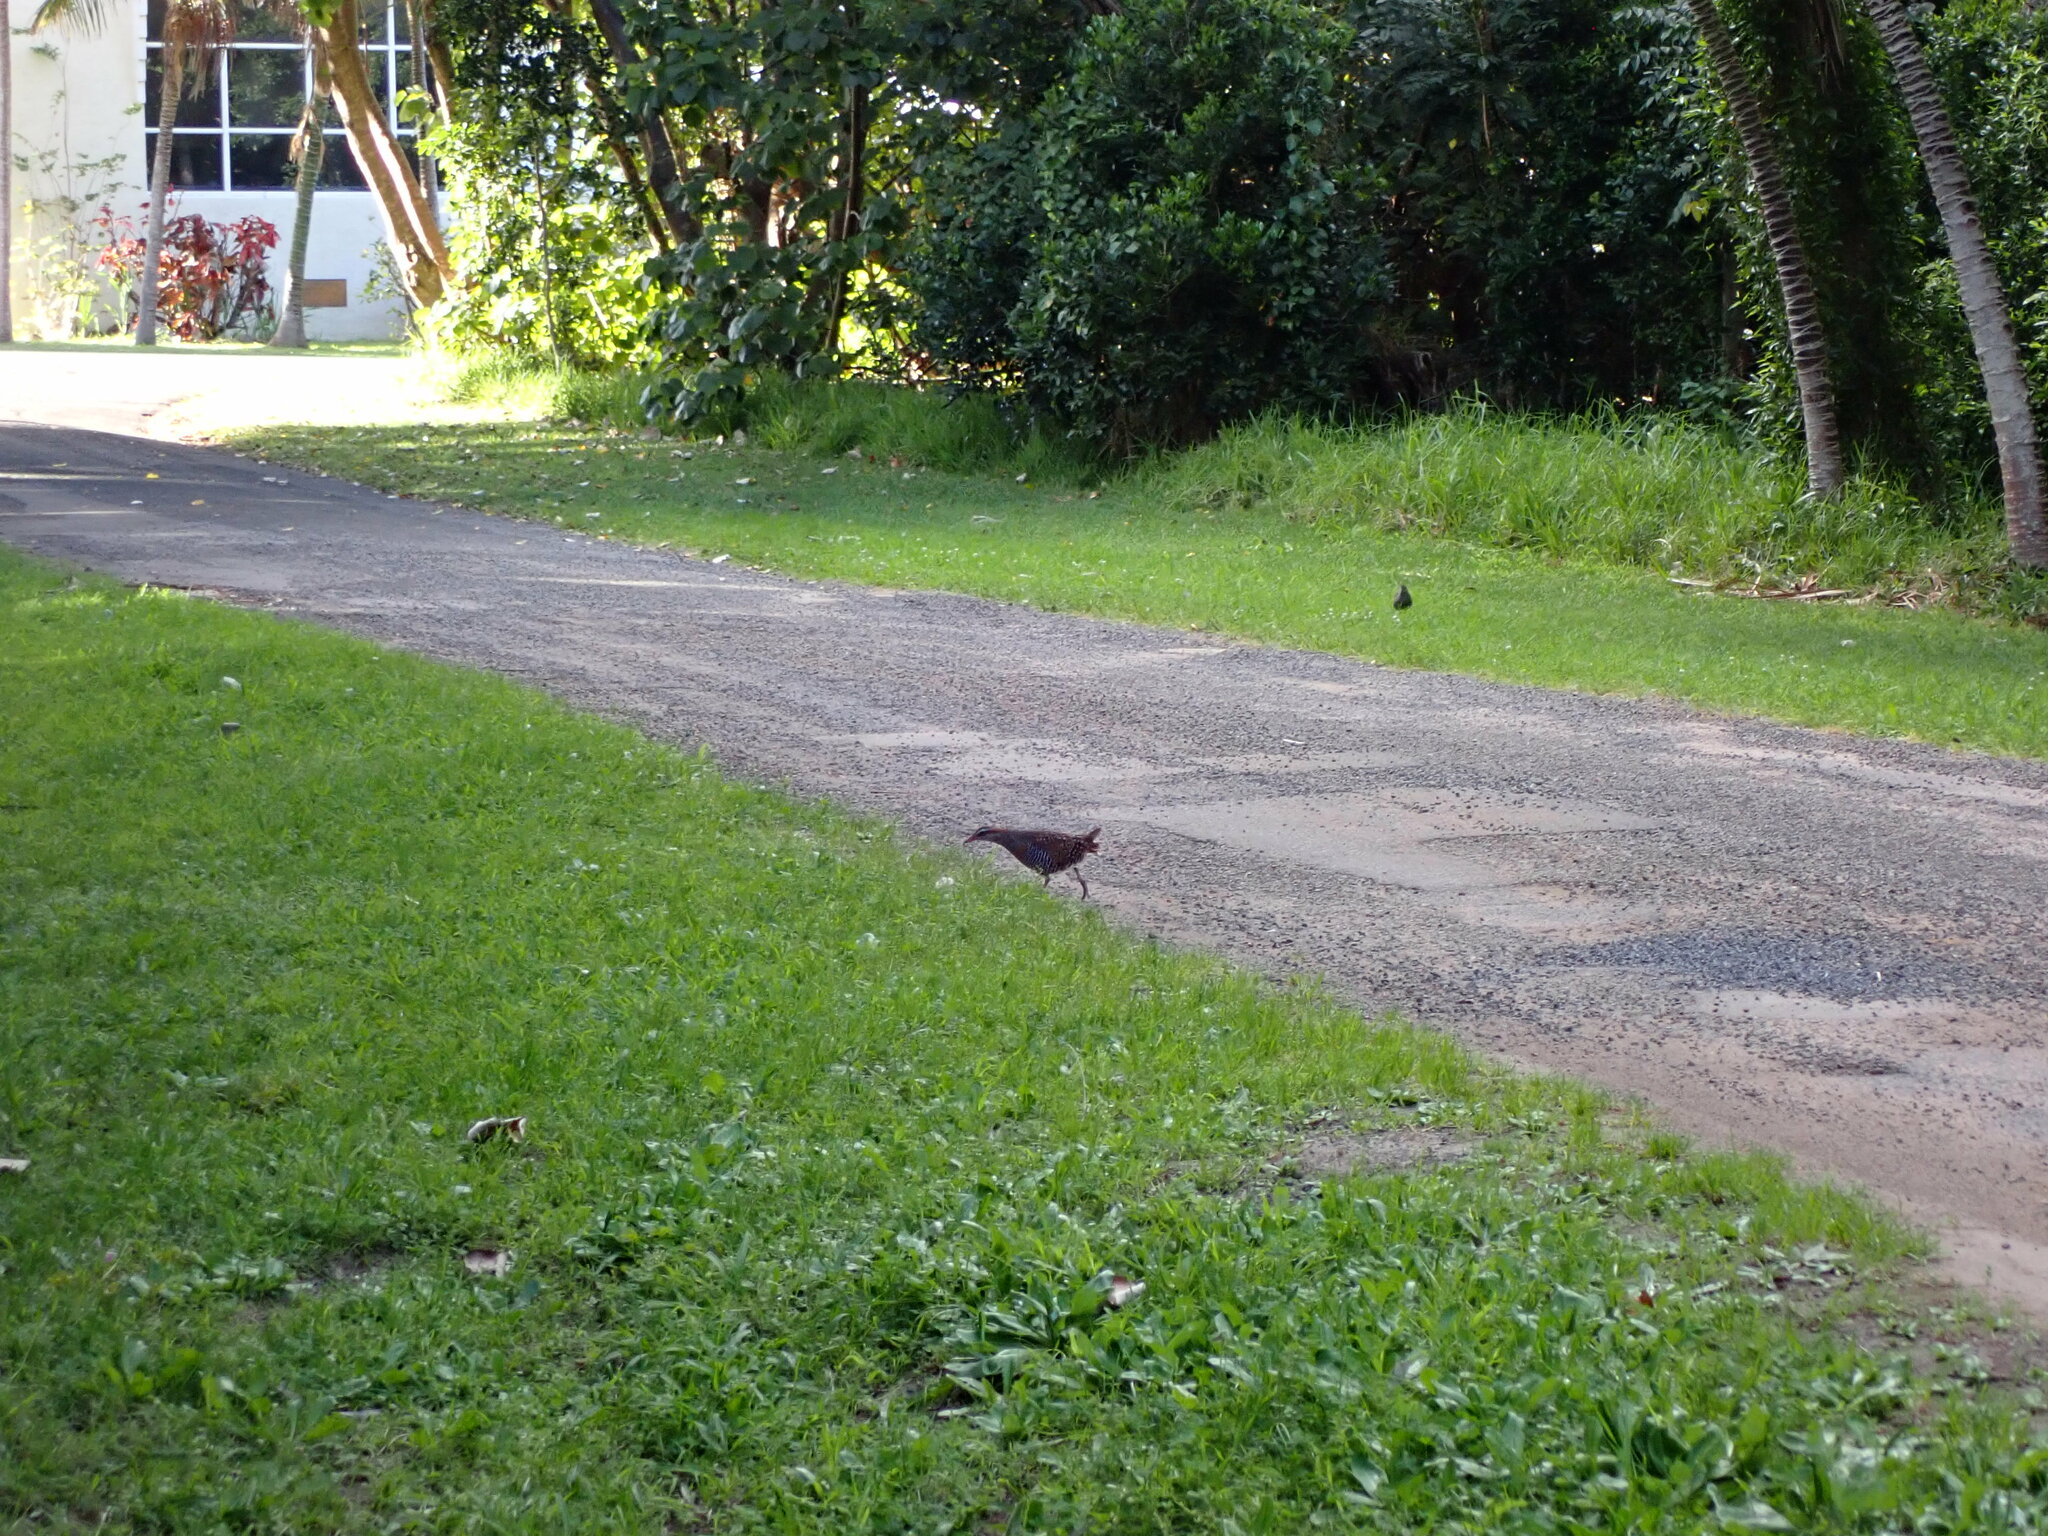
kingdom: Animalia
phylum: Chordata
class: Aves
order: Gruiformes
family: Rallidae
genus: Gallirallus
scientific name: Gallirallus philippensis
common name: Buff-banded rail
